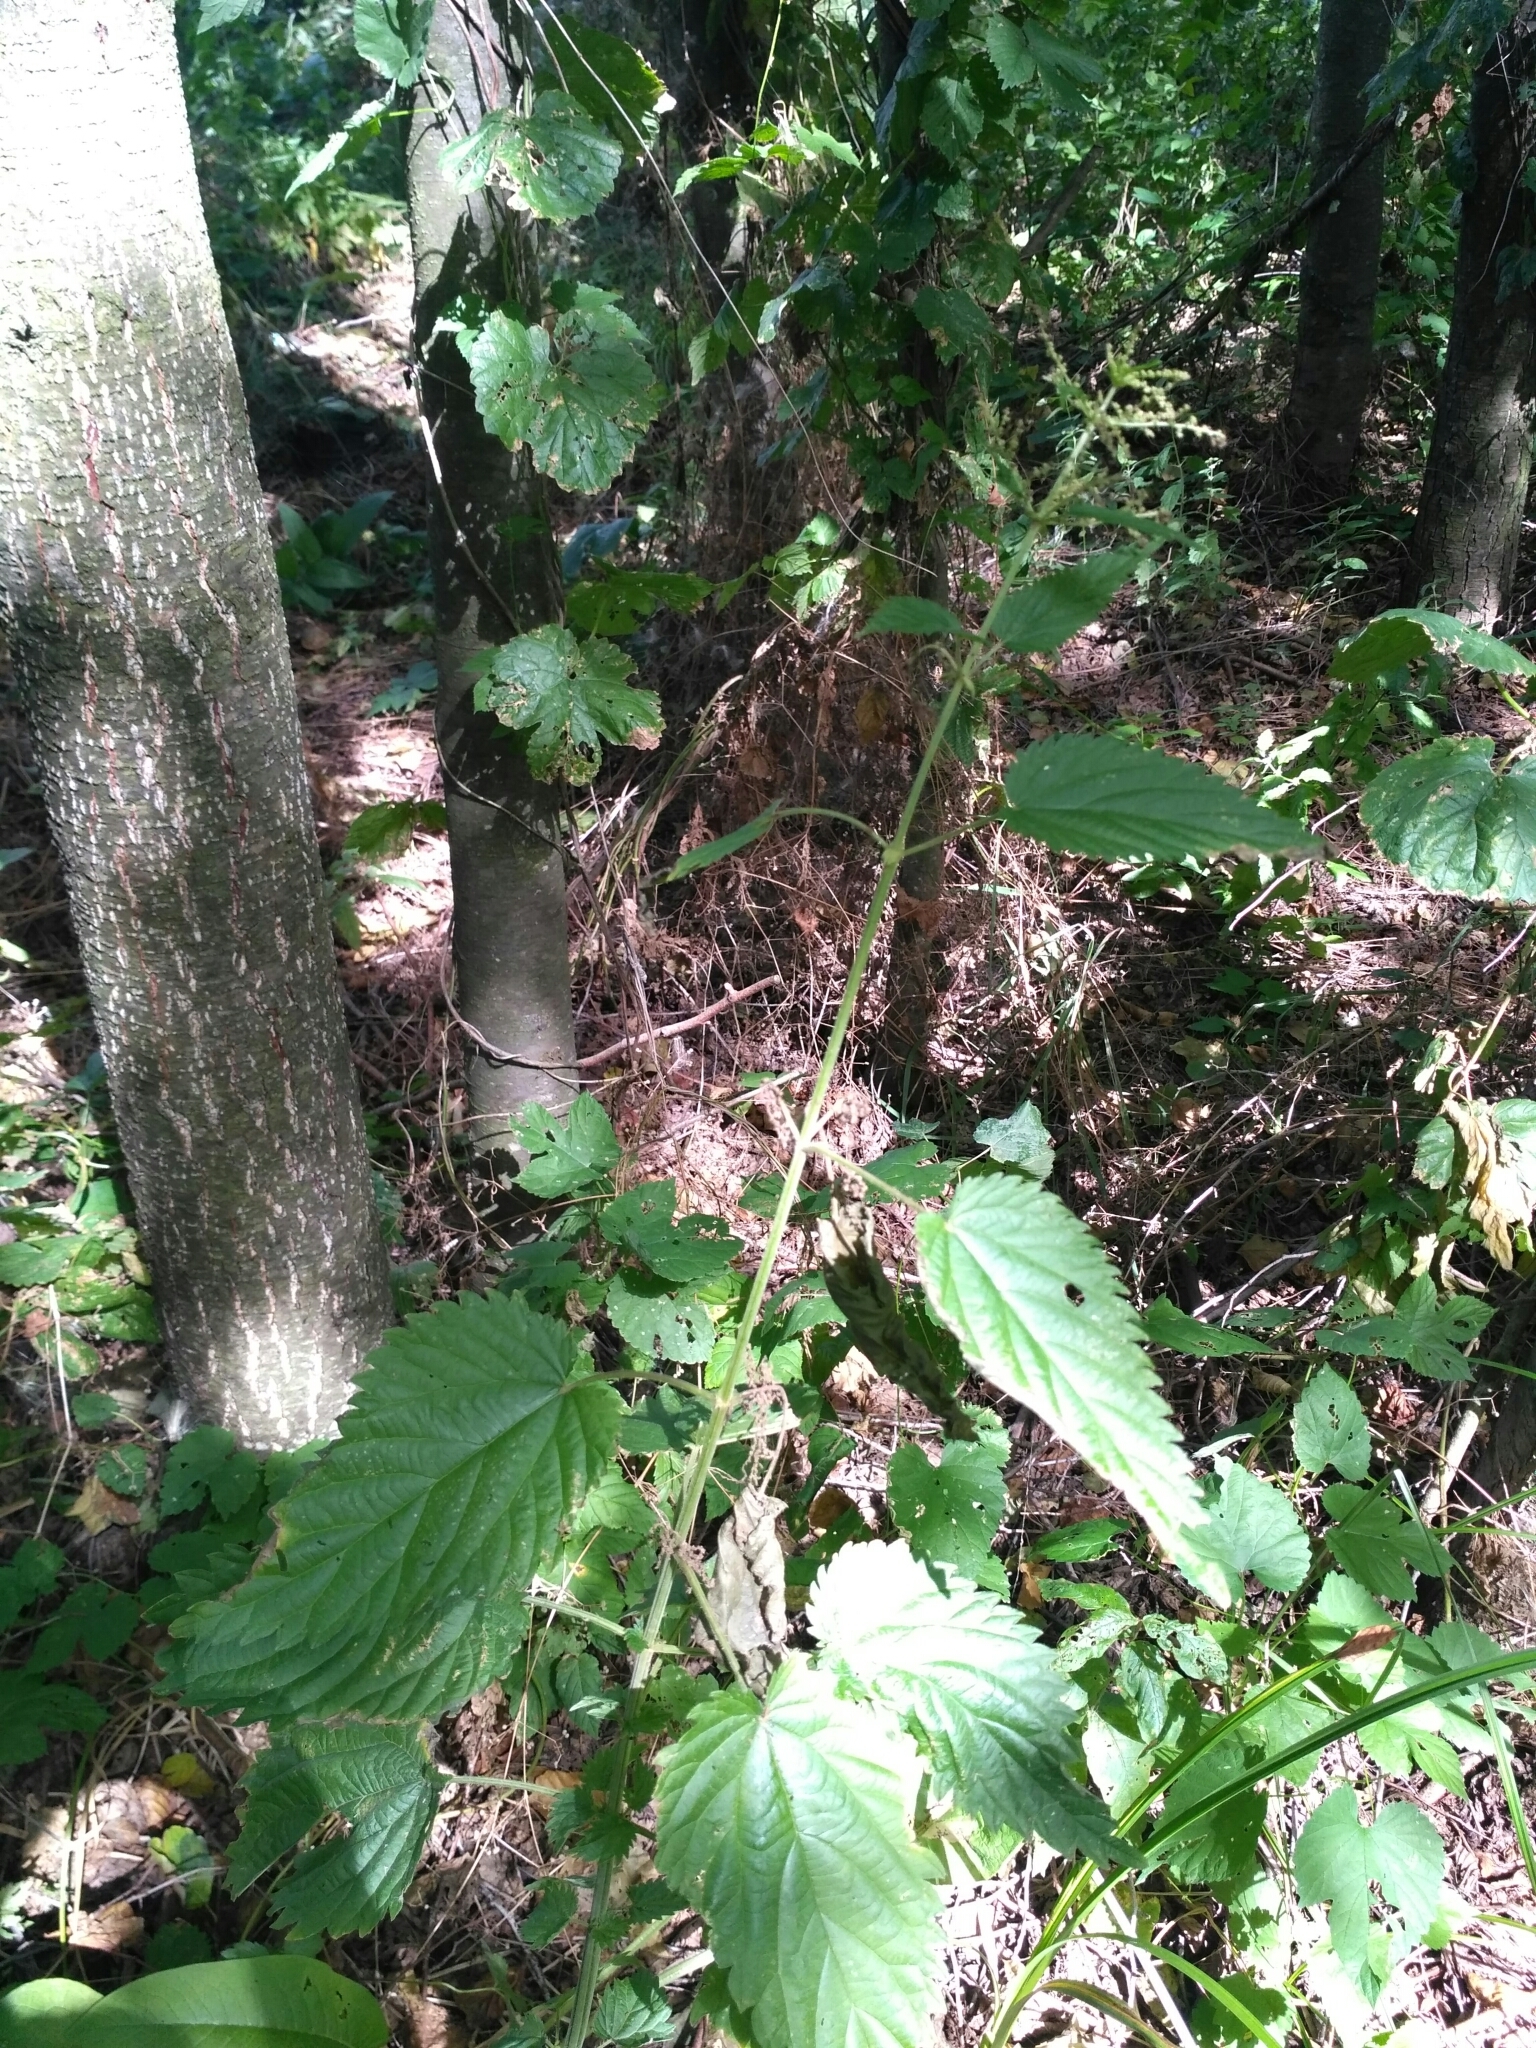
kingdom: Plantae
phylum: Tracheophyta
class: Magnoliopsida
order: Rosales
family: Urticaceae
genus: Urtica
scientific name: Urtica dioica
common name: Common nettle
